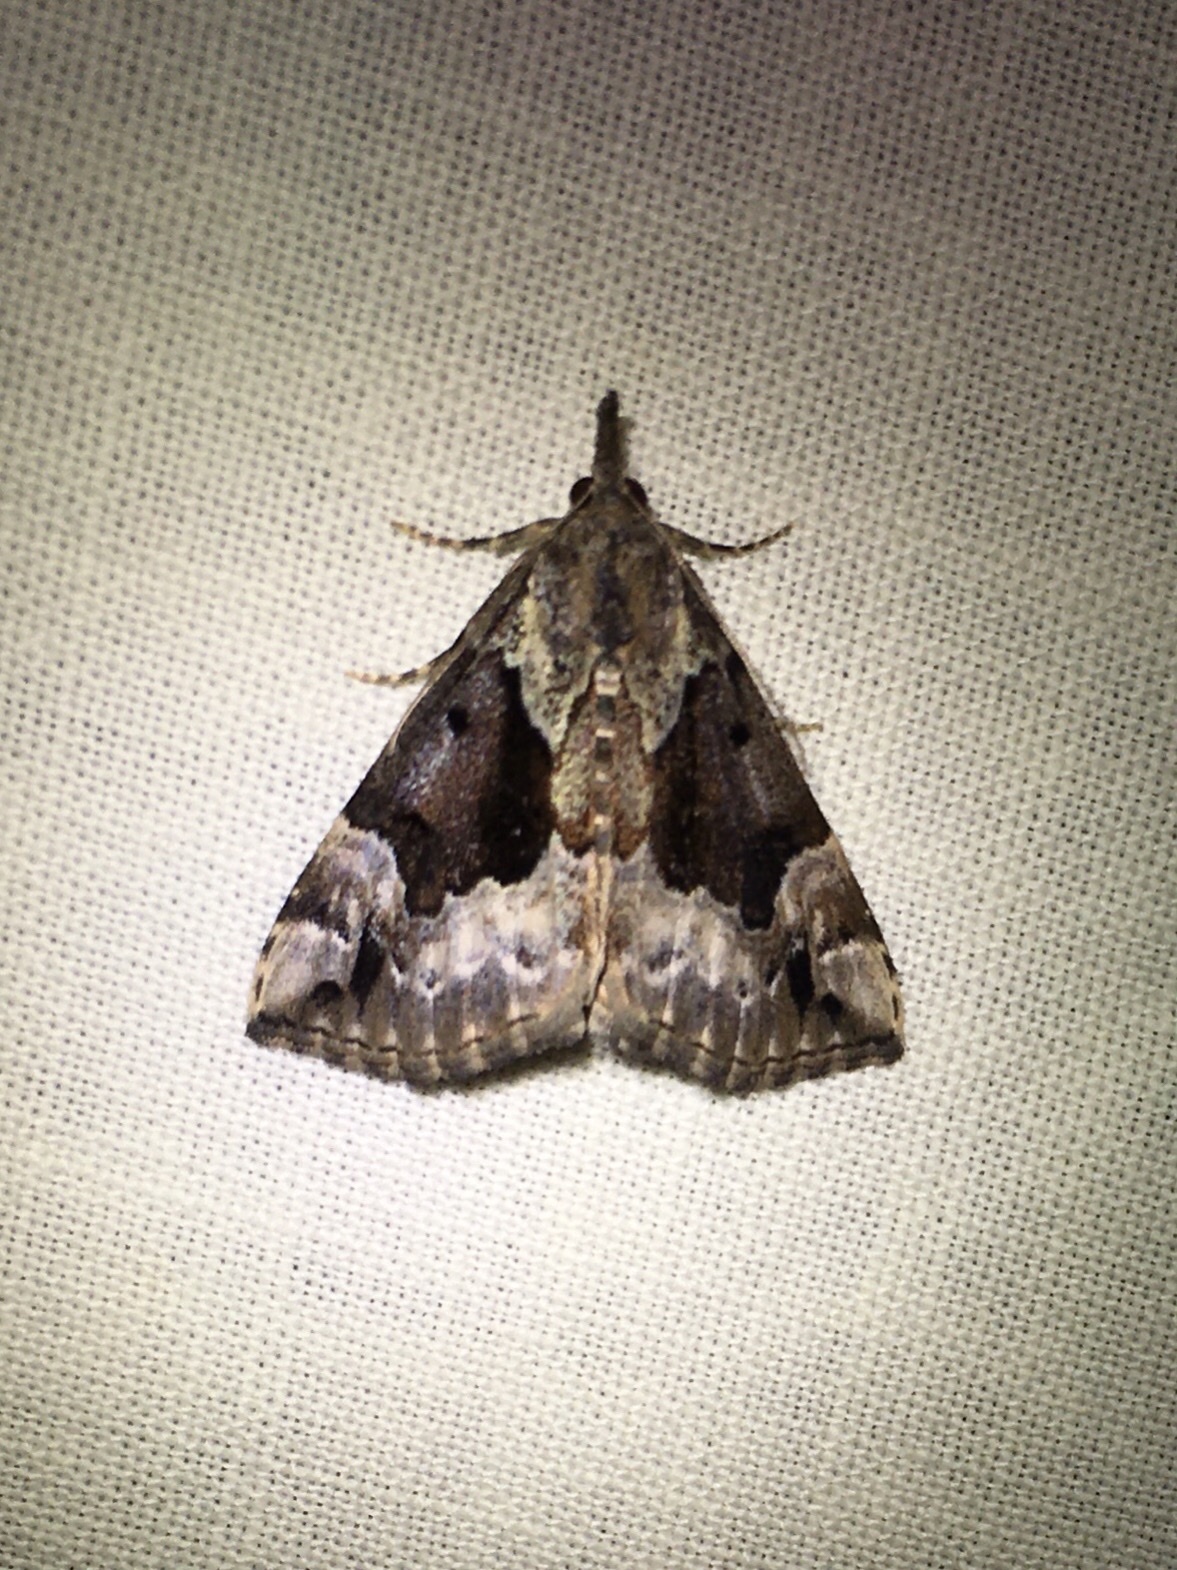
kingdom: Animalia
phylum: Arthropoda
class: Insecta
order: Lepidoptera
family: Erebidae
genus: Hypena
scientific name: Hypena palparia
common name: Mottled bomolocha moth
